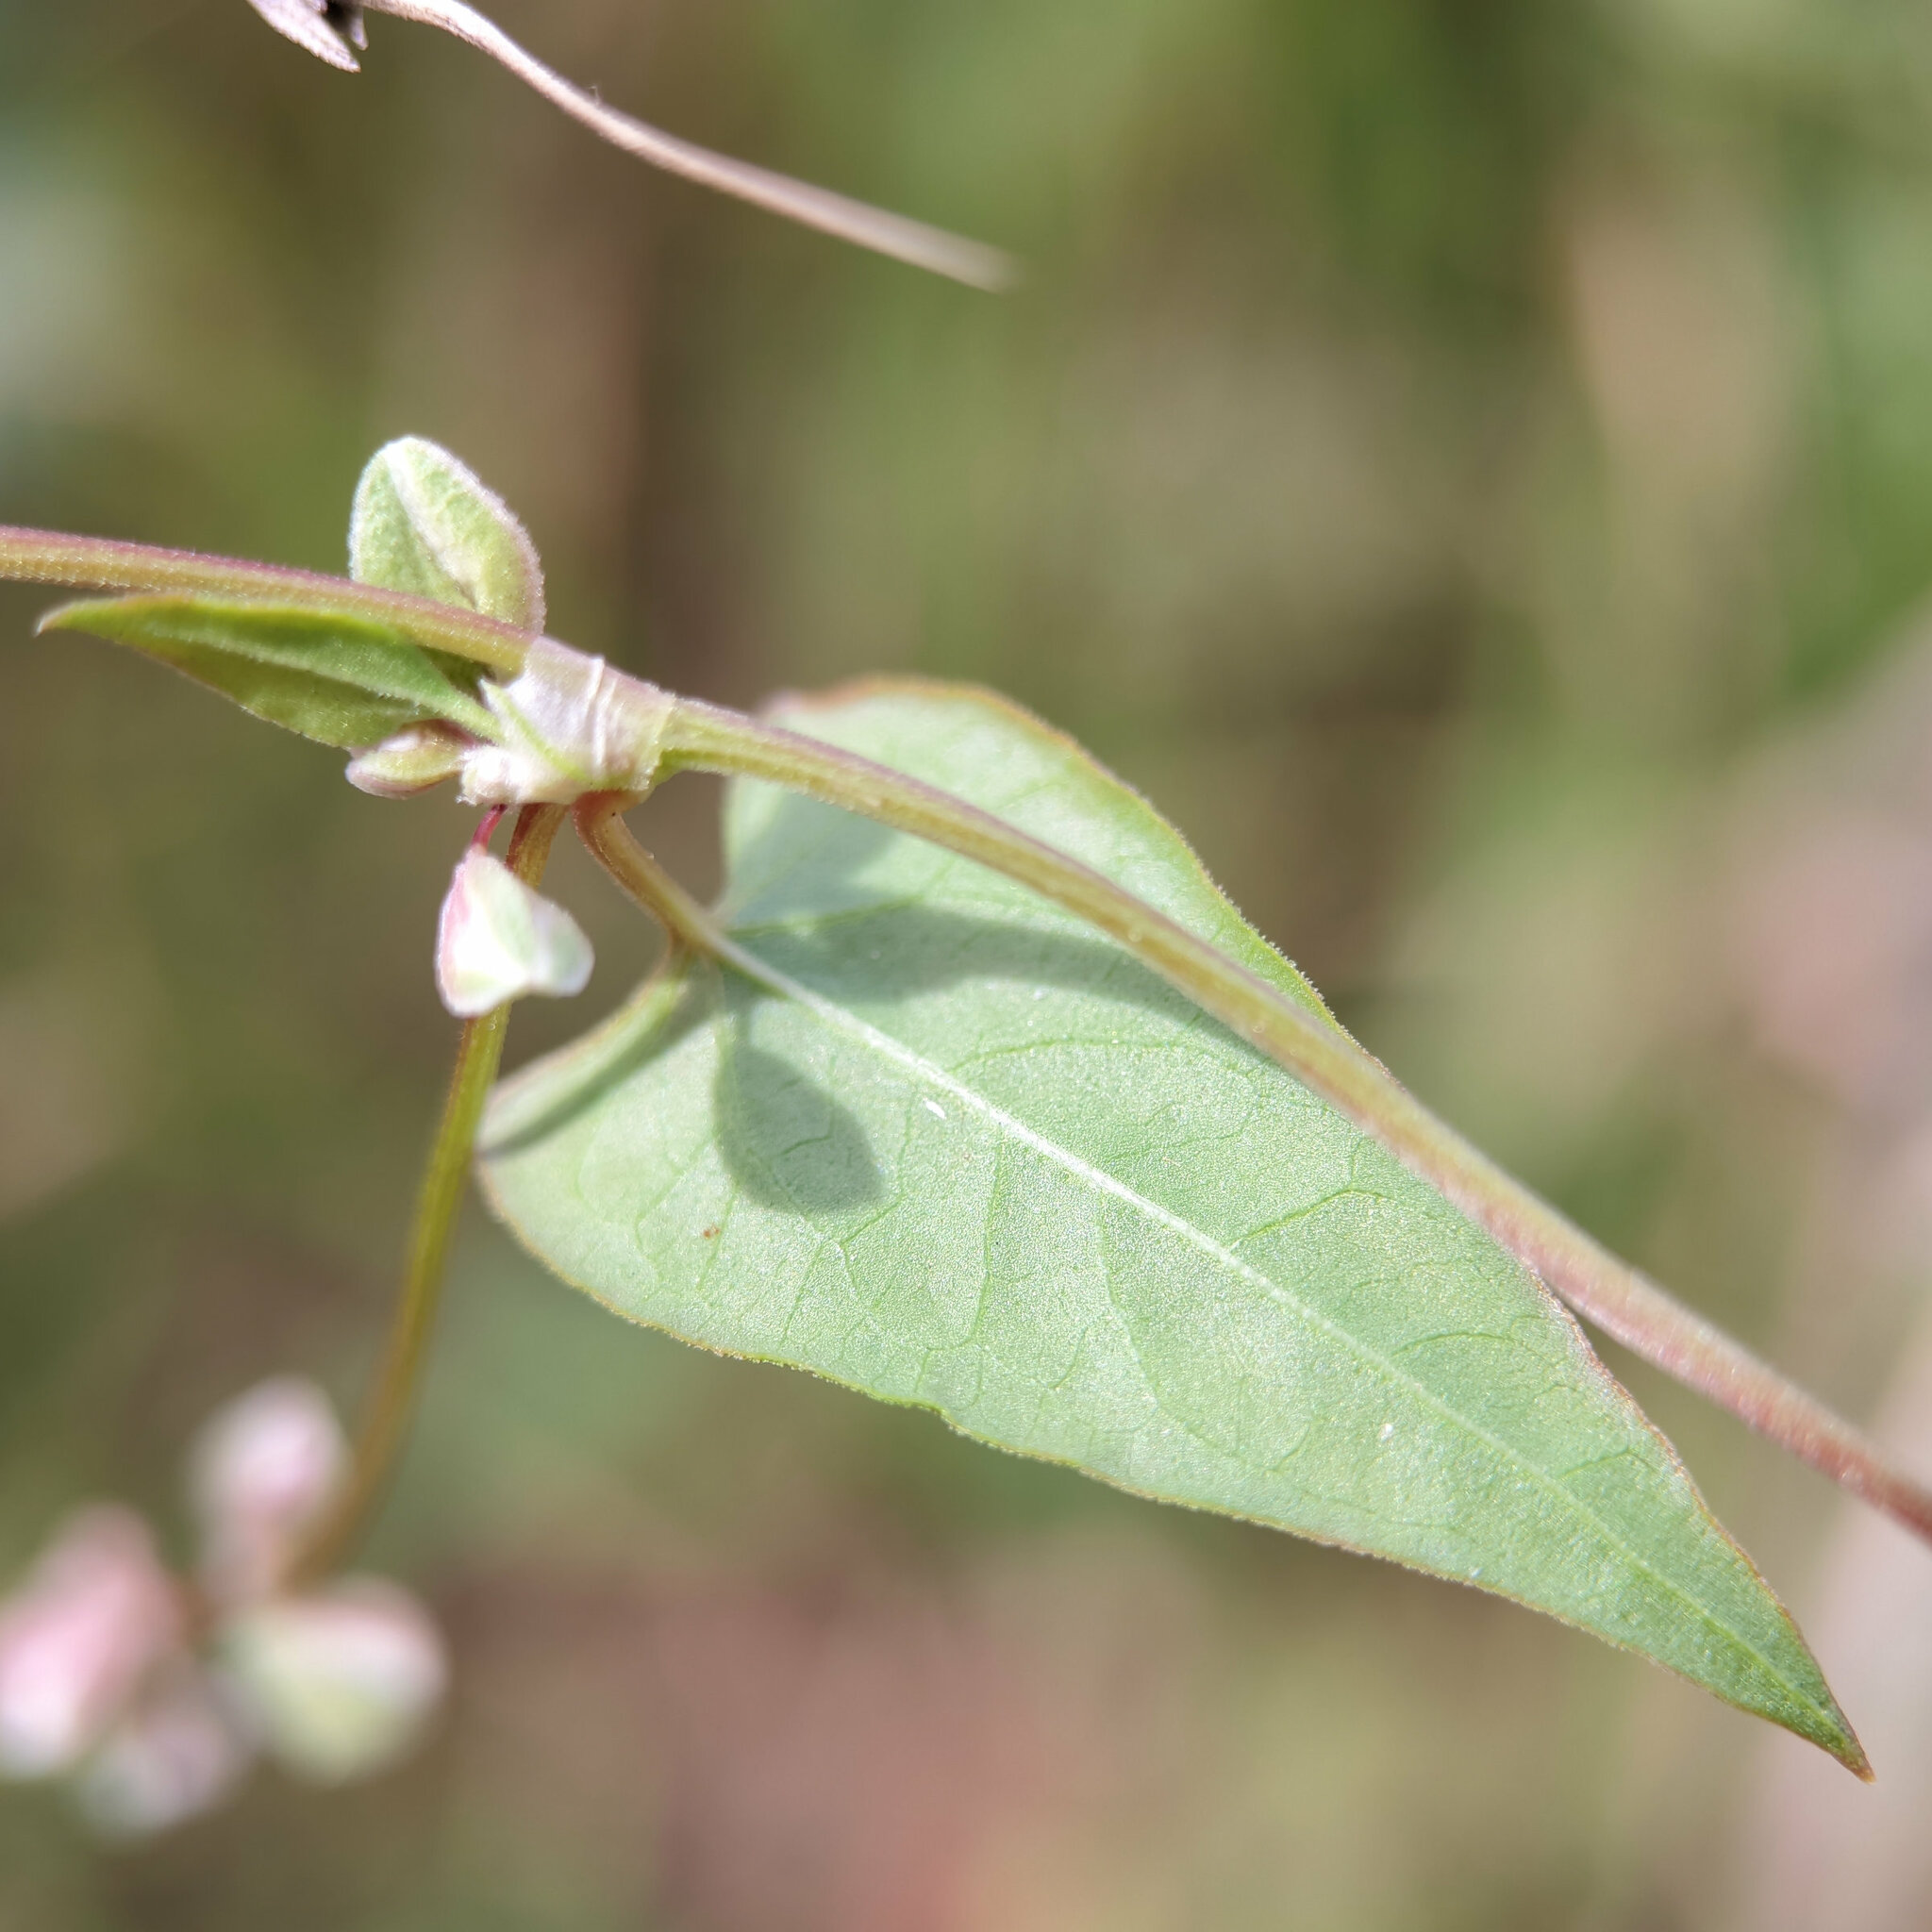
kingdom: Plantae
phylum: Tracheophyta
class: Magnoliopsida
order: Caryophyllales
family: Polygonaceae
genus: Fallopia
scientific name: Fallopia convolvulus
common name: Black bindweed
